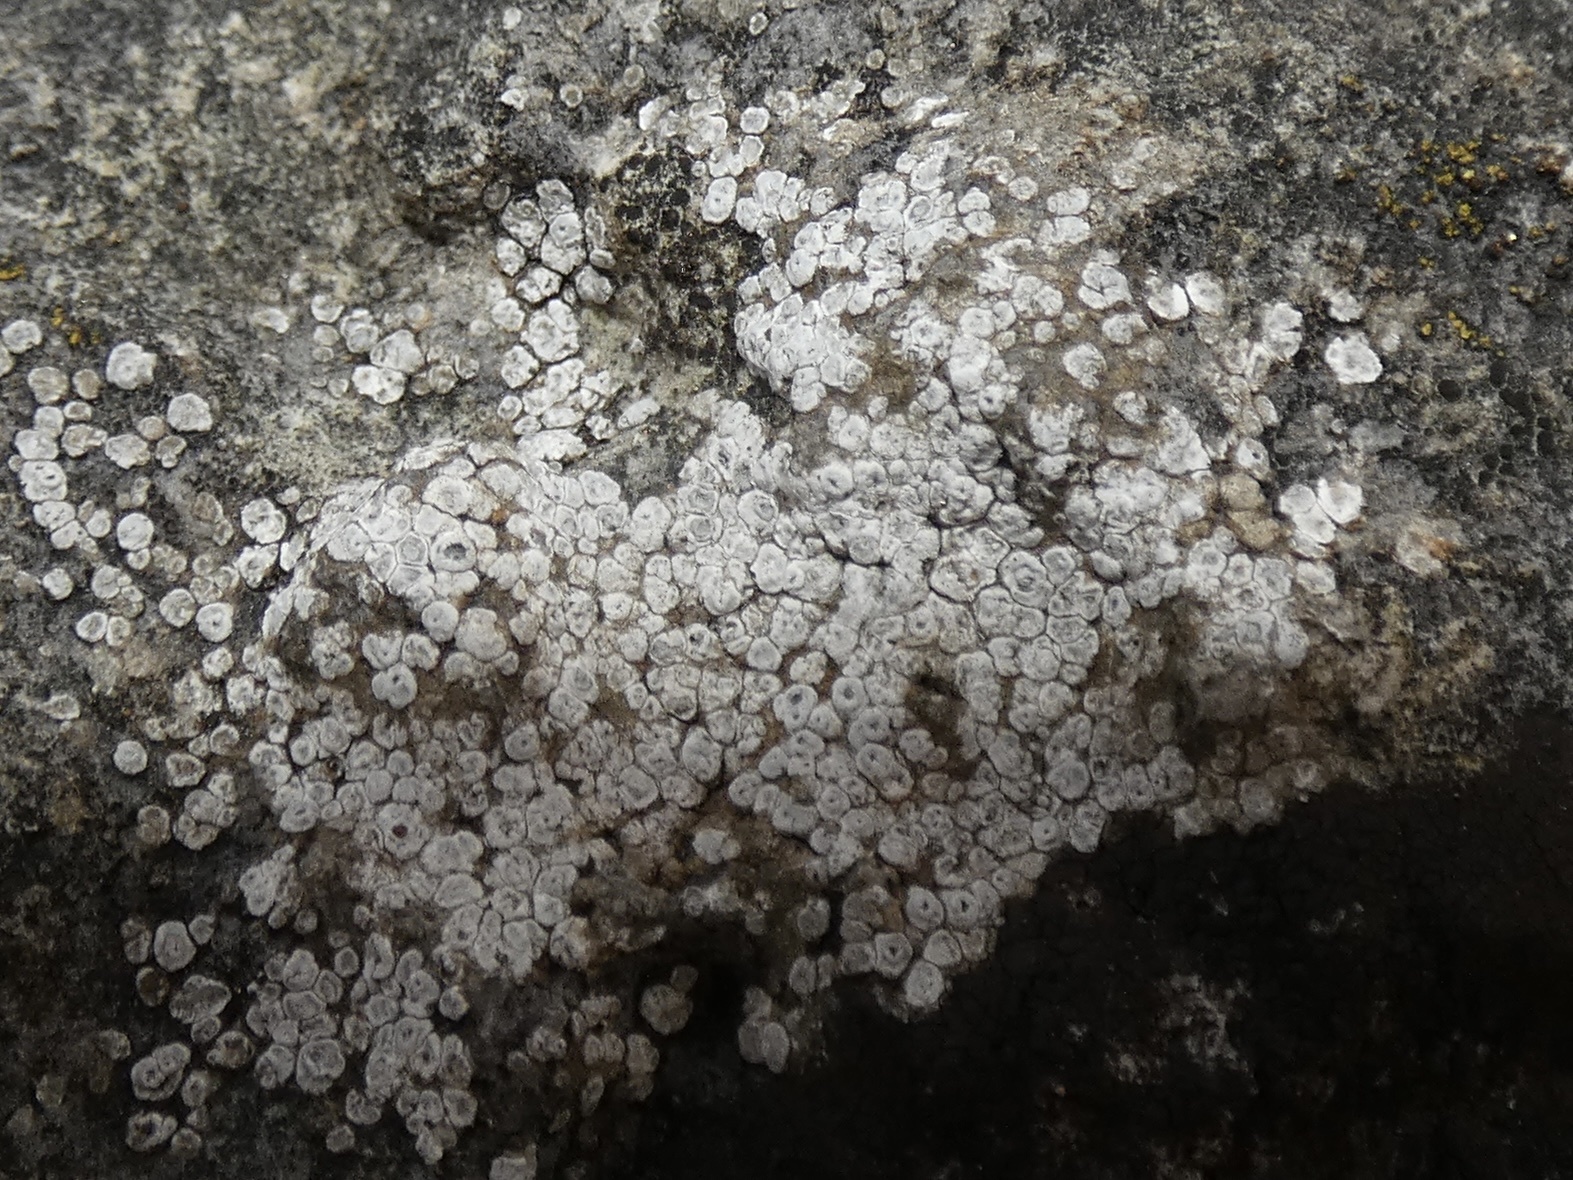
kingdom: Fungi
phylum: Ascomycota
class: Lecanoromycetes
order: Pertusariales
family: Megasporaceae
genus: Circinaria
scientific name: Circinaria contorta
